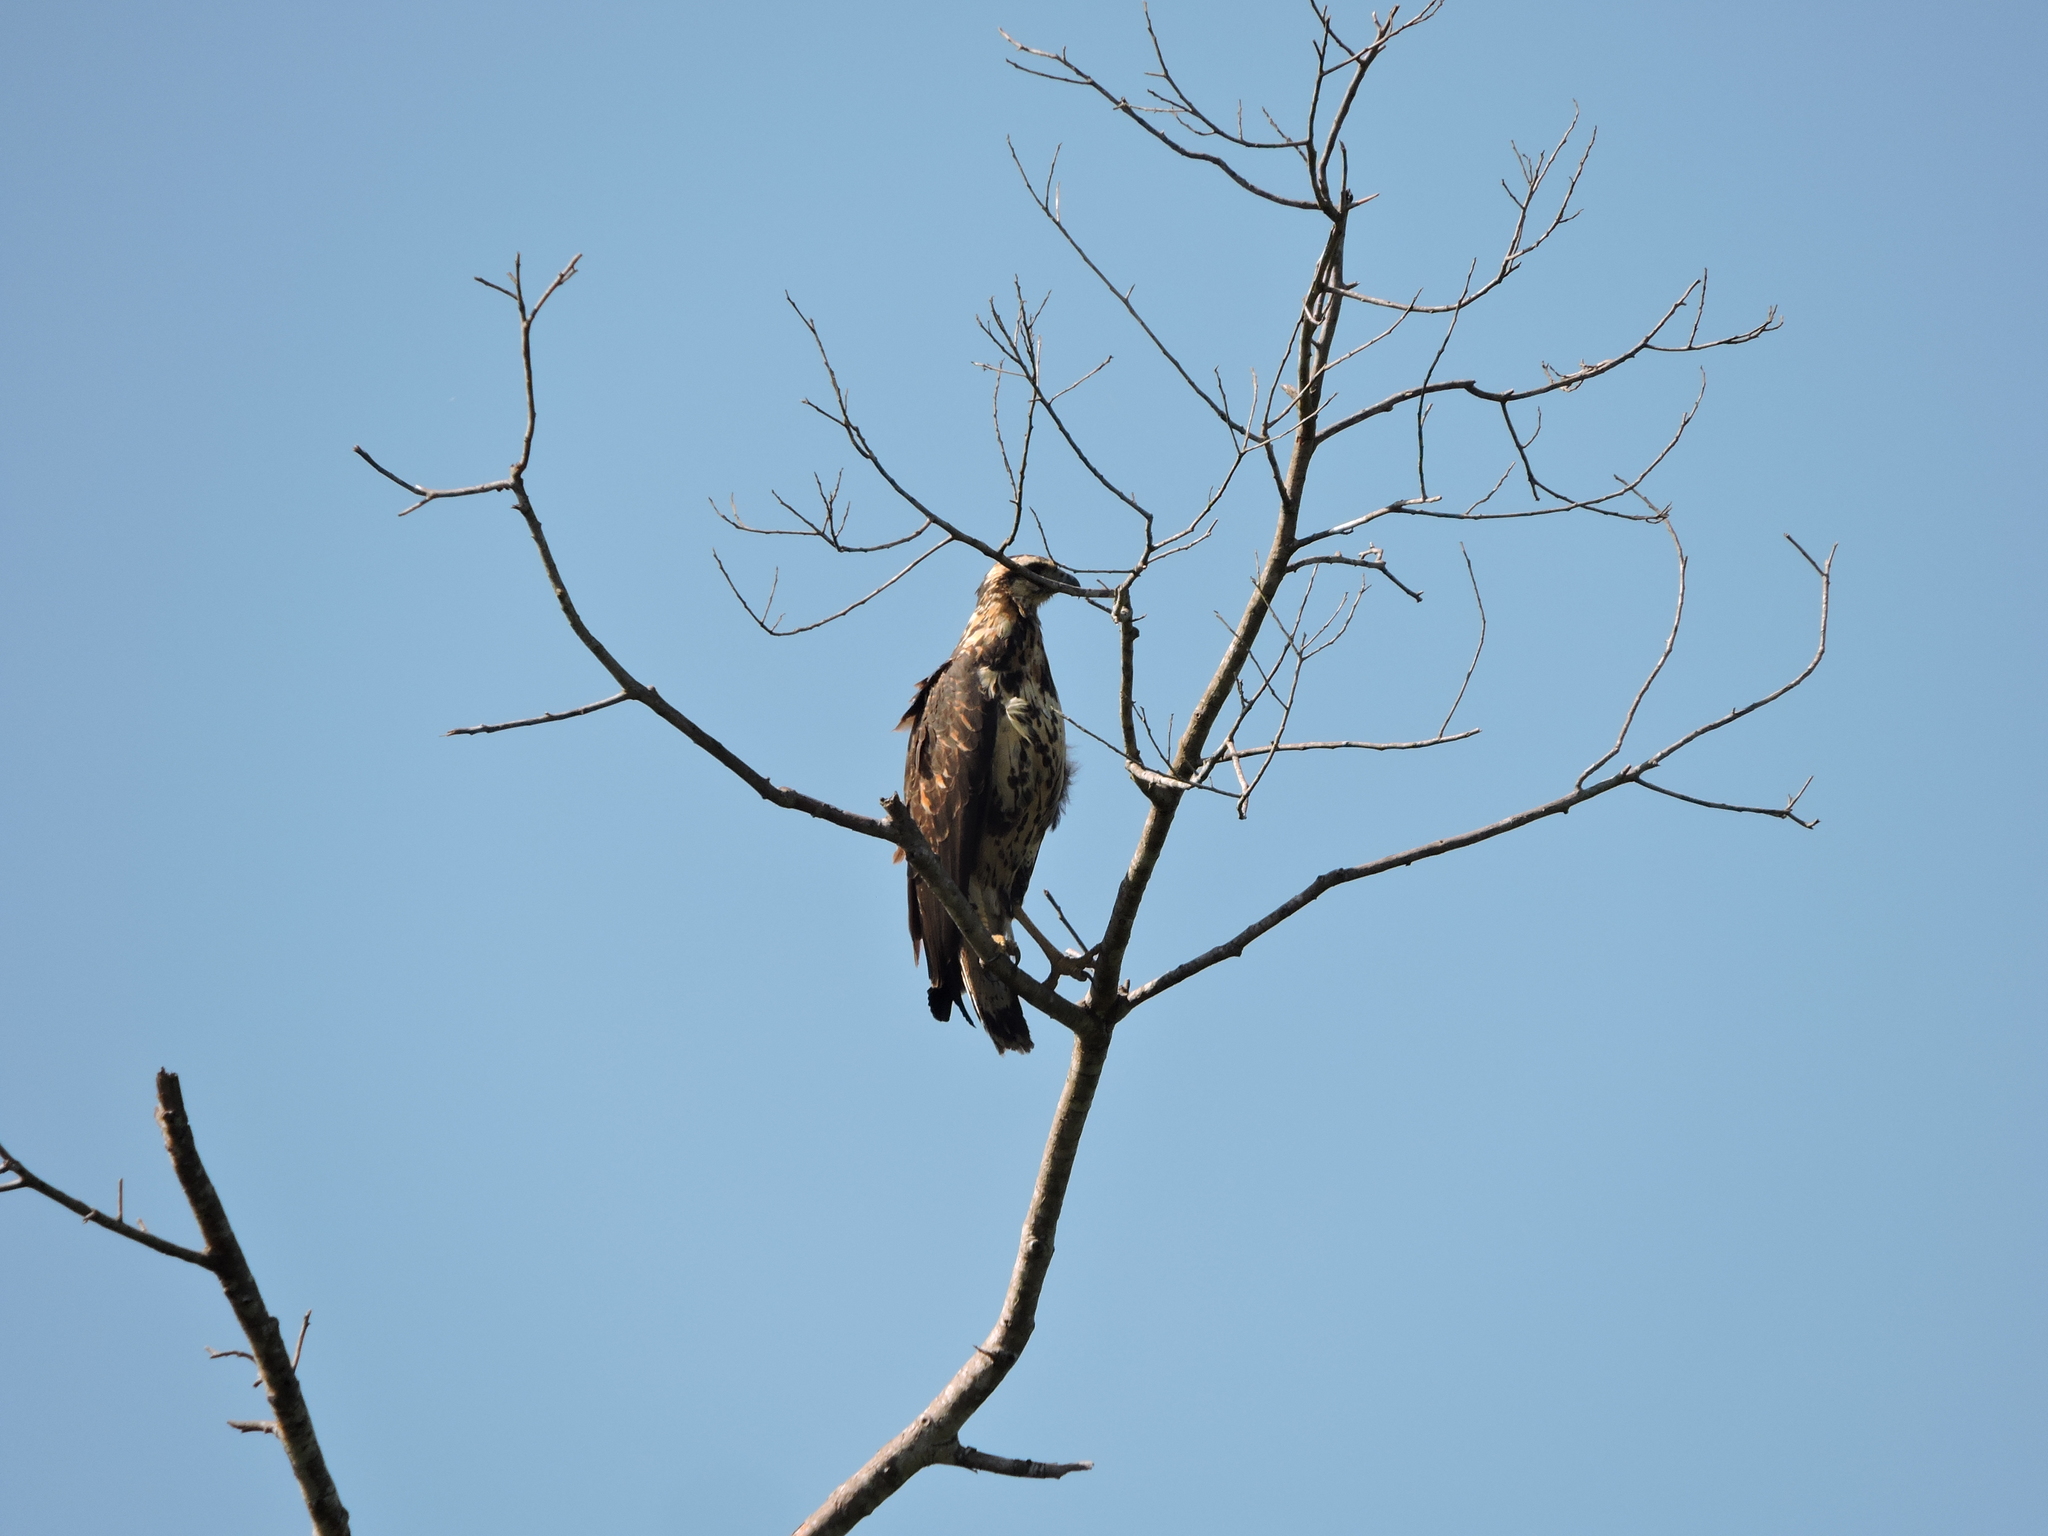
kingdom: Animalia
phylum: Chordata
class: Aves
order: Accipitriformes
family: Accipitridae
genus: Buteogallus
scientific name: Buteogallus meridionalis
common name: Savanna hawk
